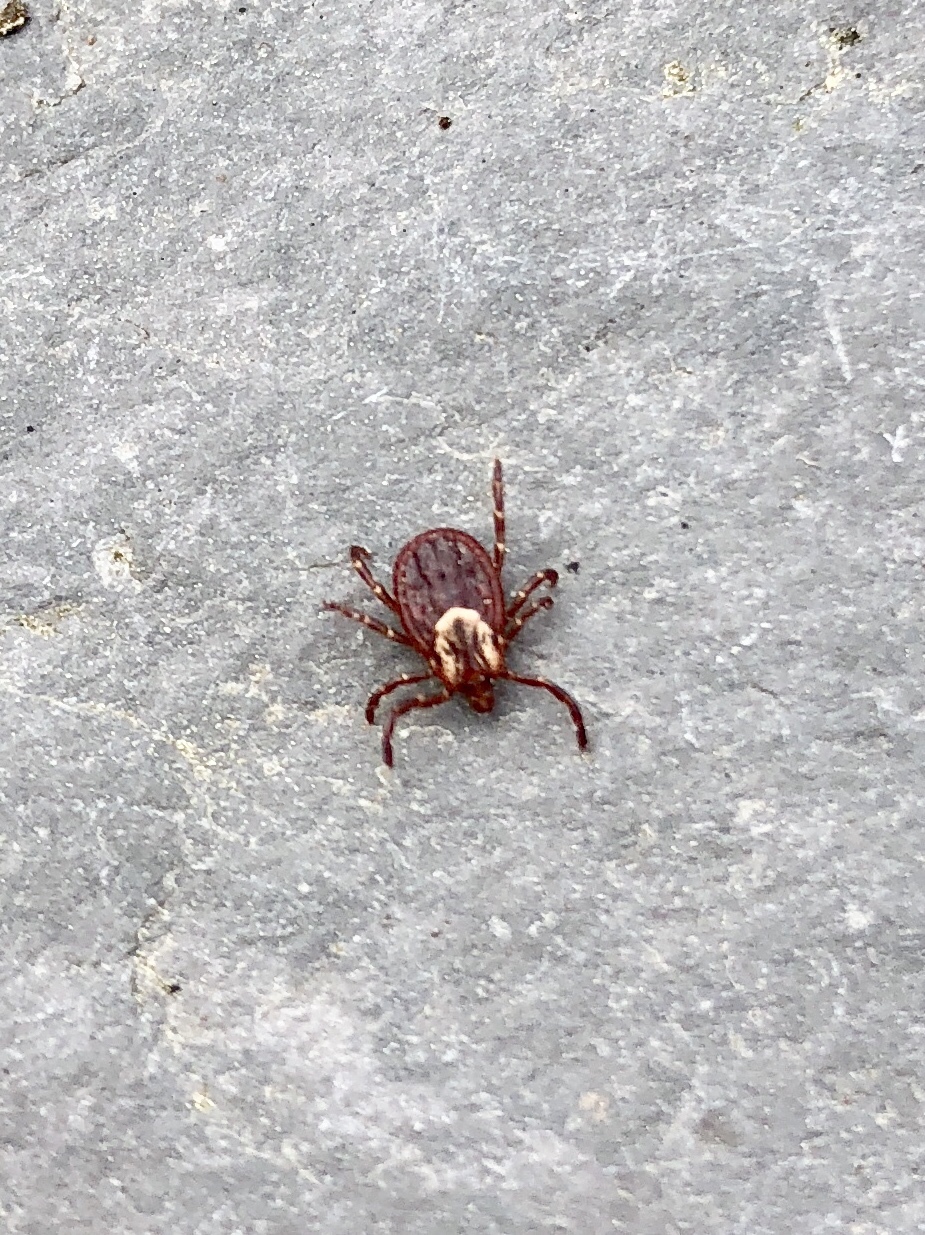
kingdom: Animalia
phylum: Arthropoda
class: Arachnida
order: Ixodida
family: Ixodidae
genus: Dermacentor
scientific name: Dermacentor variabilis
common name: American dog tick
